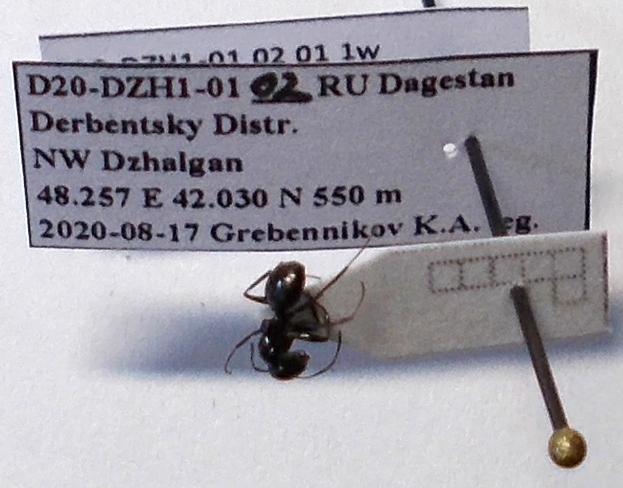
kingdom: Animalia
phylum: Arthropoda
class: Insecta
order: Hymenoptera
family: Formicidae
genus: Camponotus
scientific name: Camponotus piceus
